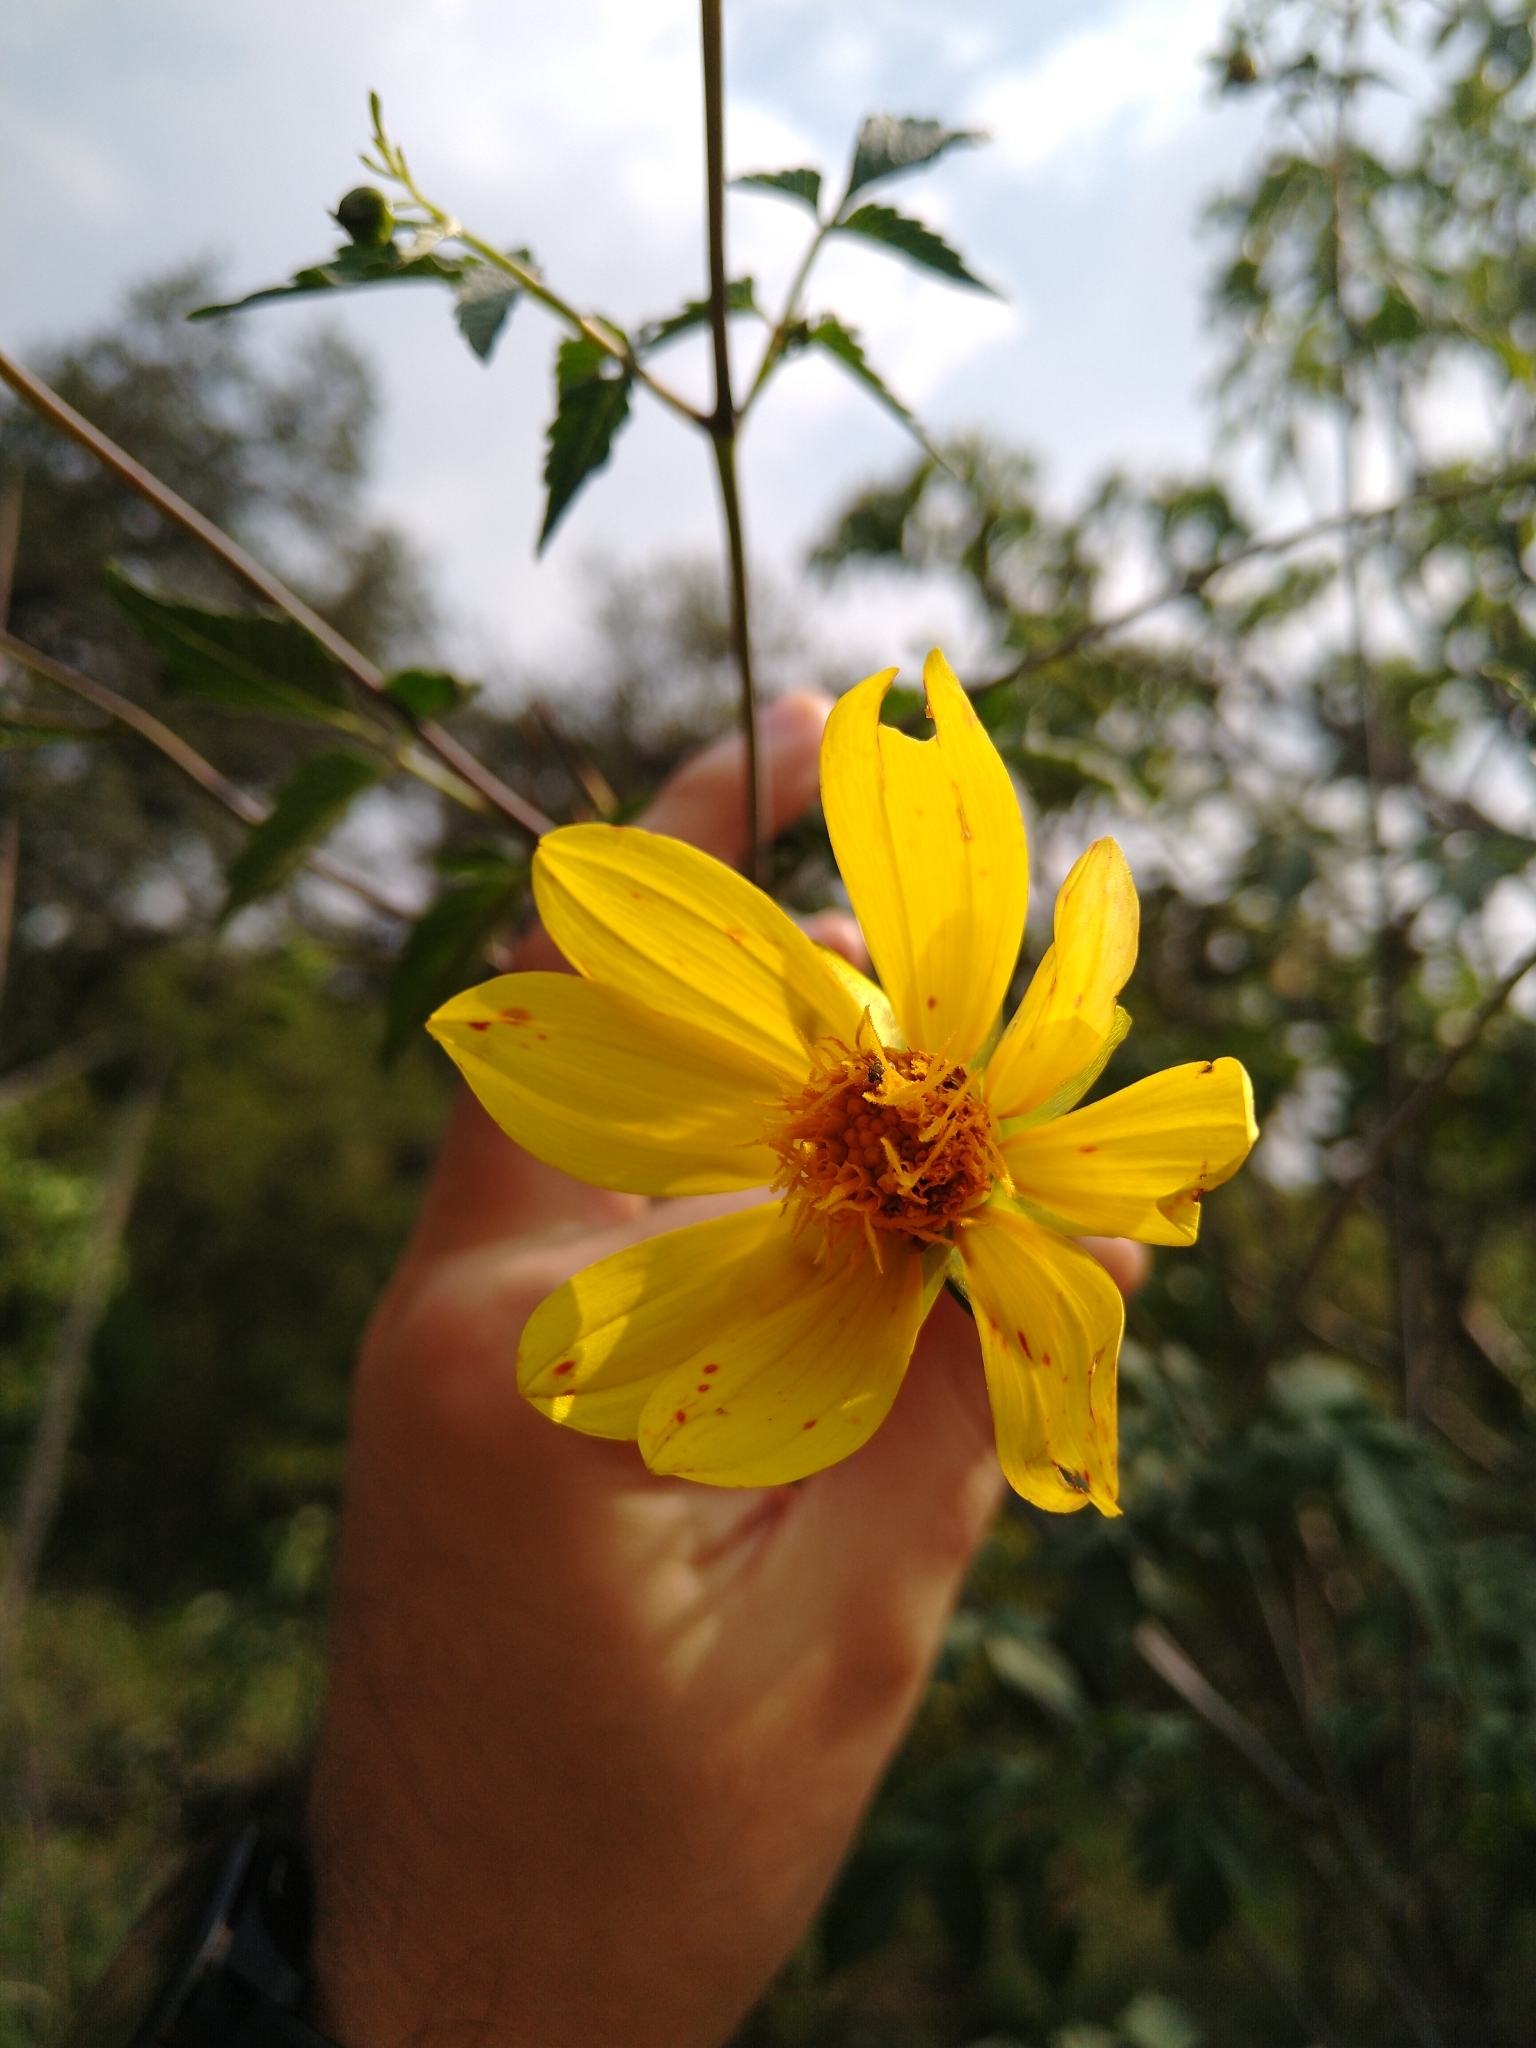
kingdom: Plantae
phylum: Tracheophyta
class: Magnoliopsida
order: Asterales
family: Asteraceae
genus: Dahlia
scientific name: Dahlia coccinea
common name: Red dahlia
